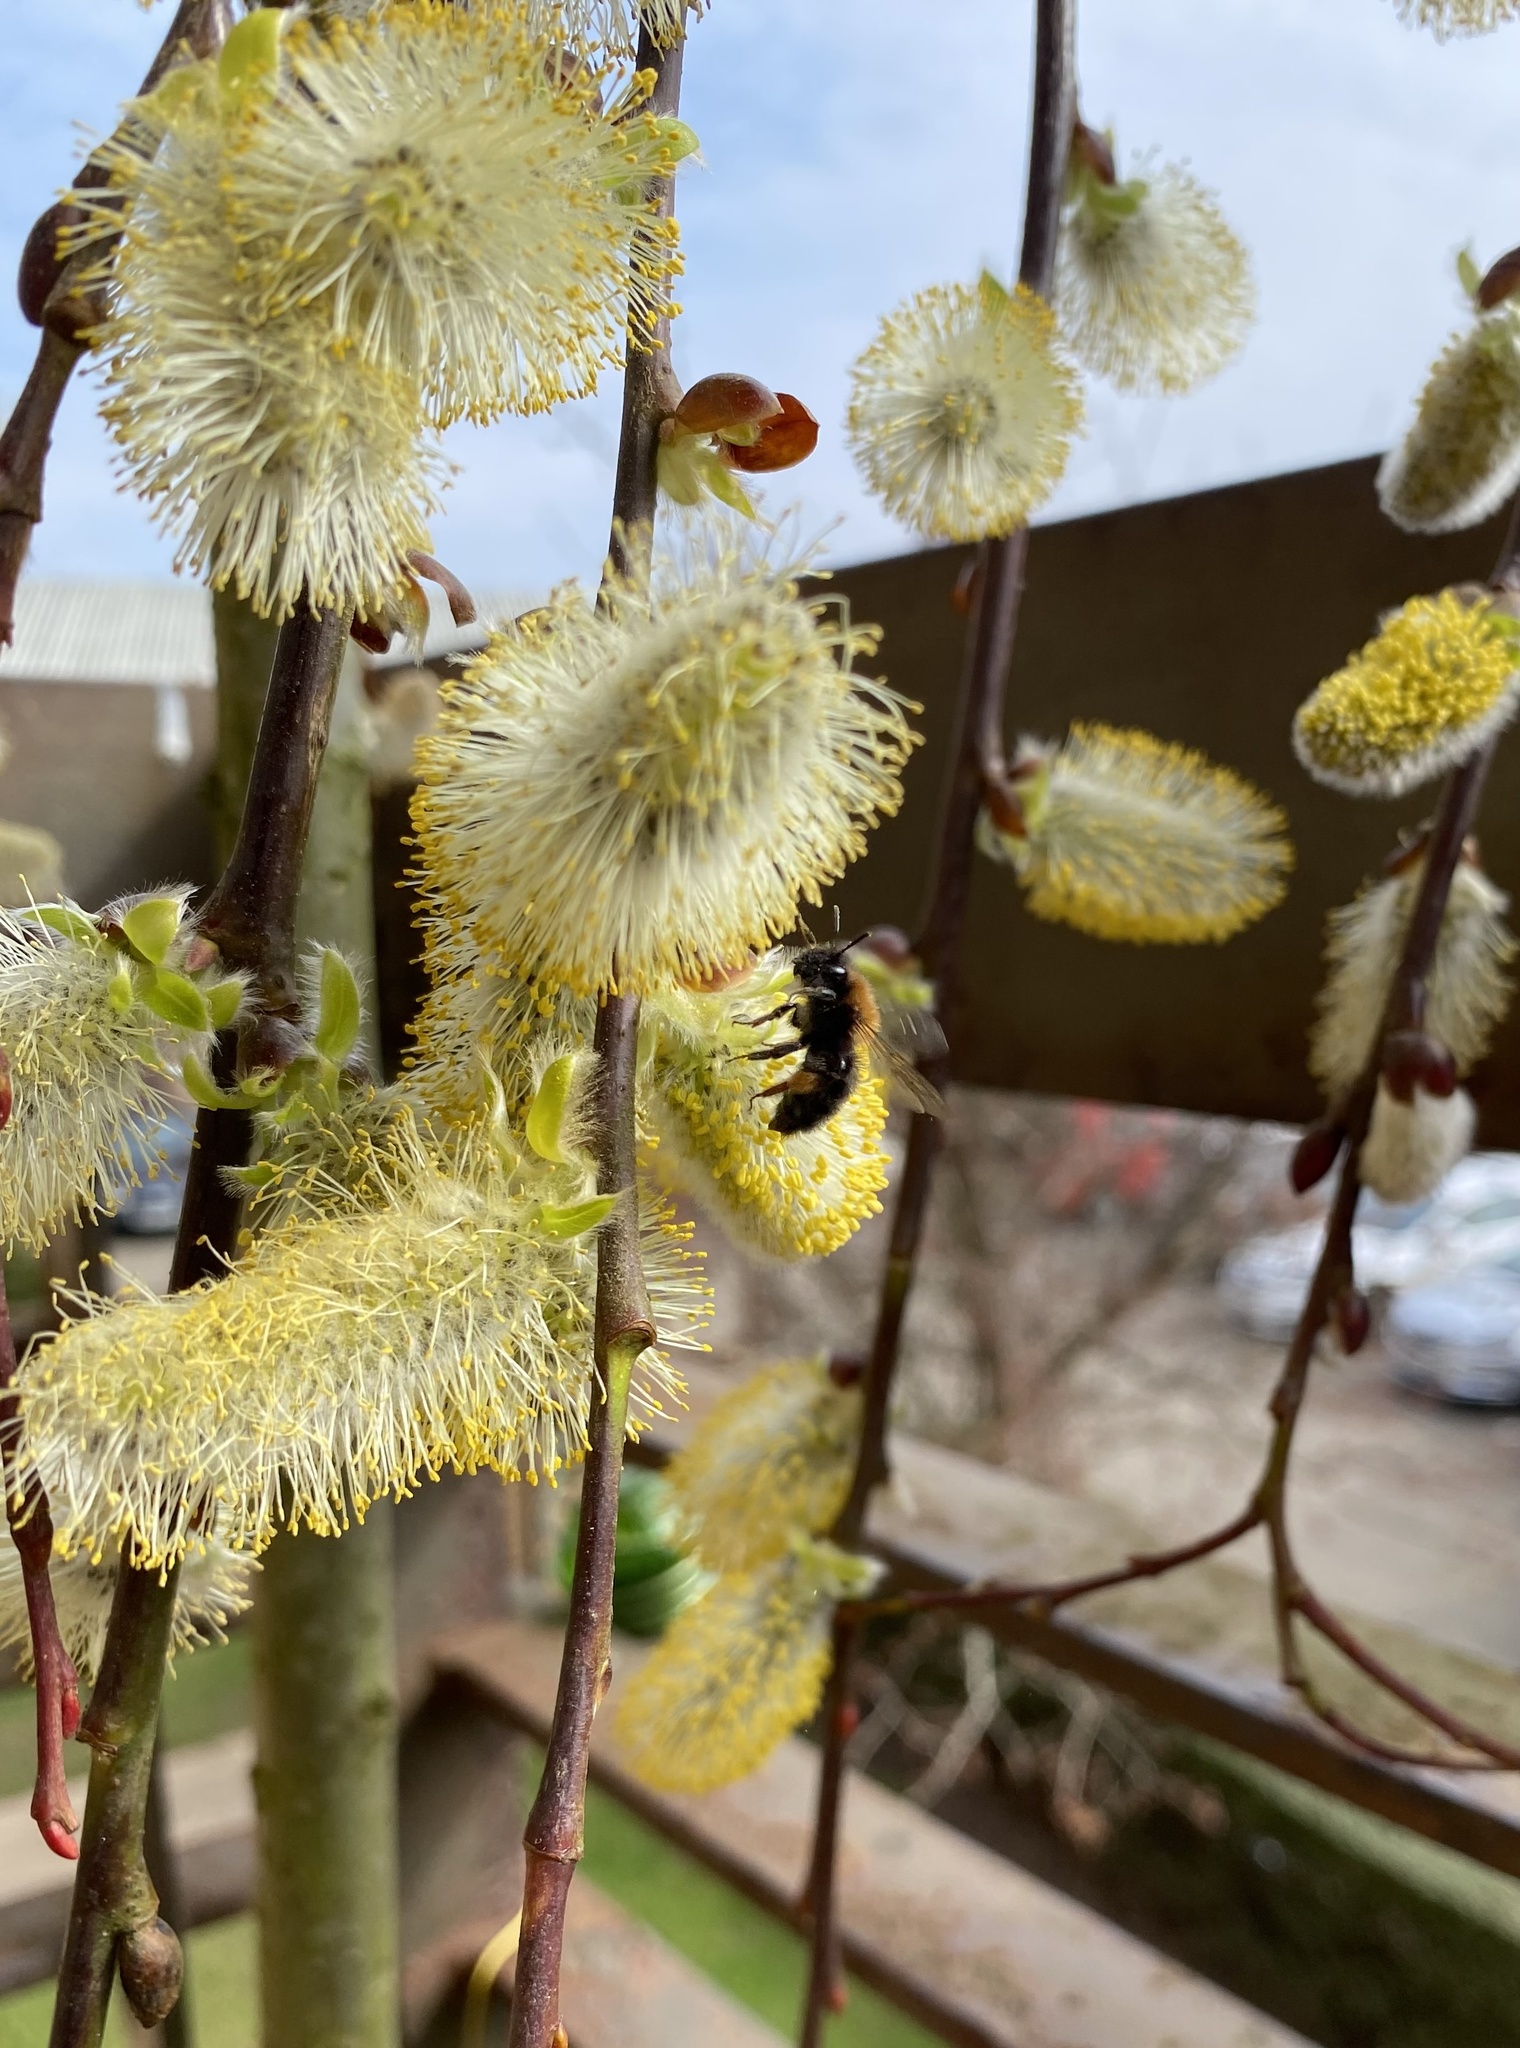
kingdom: Animalia
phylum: Arthropoda
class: Insecta
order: Hymenoptera
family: Andrenidae
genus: Andrena
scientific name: Andrena clarkella
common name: Clarke's mining bee
